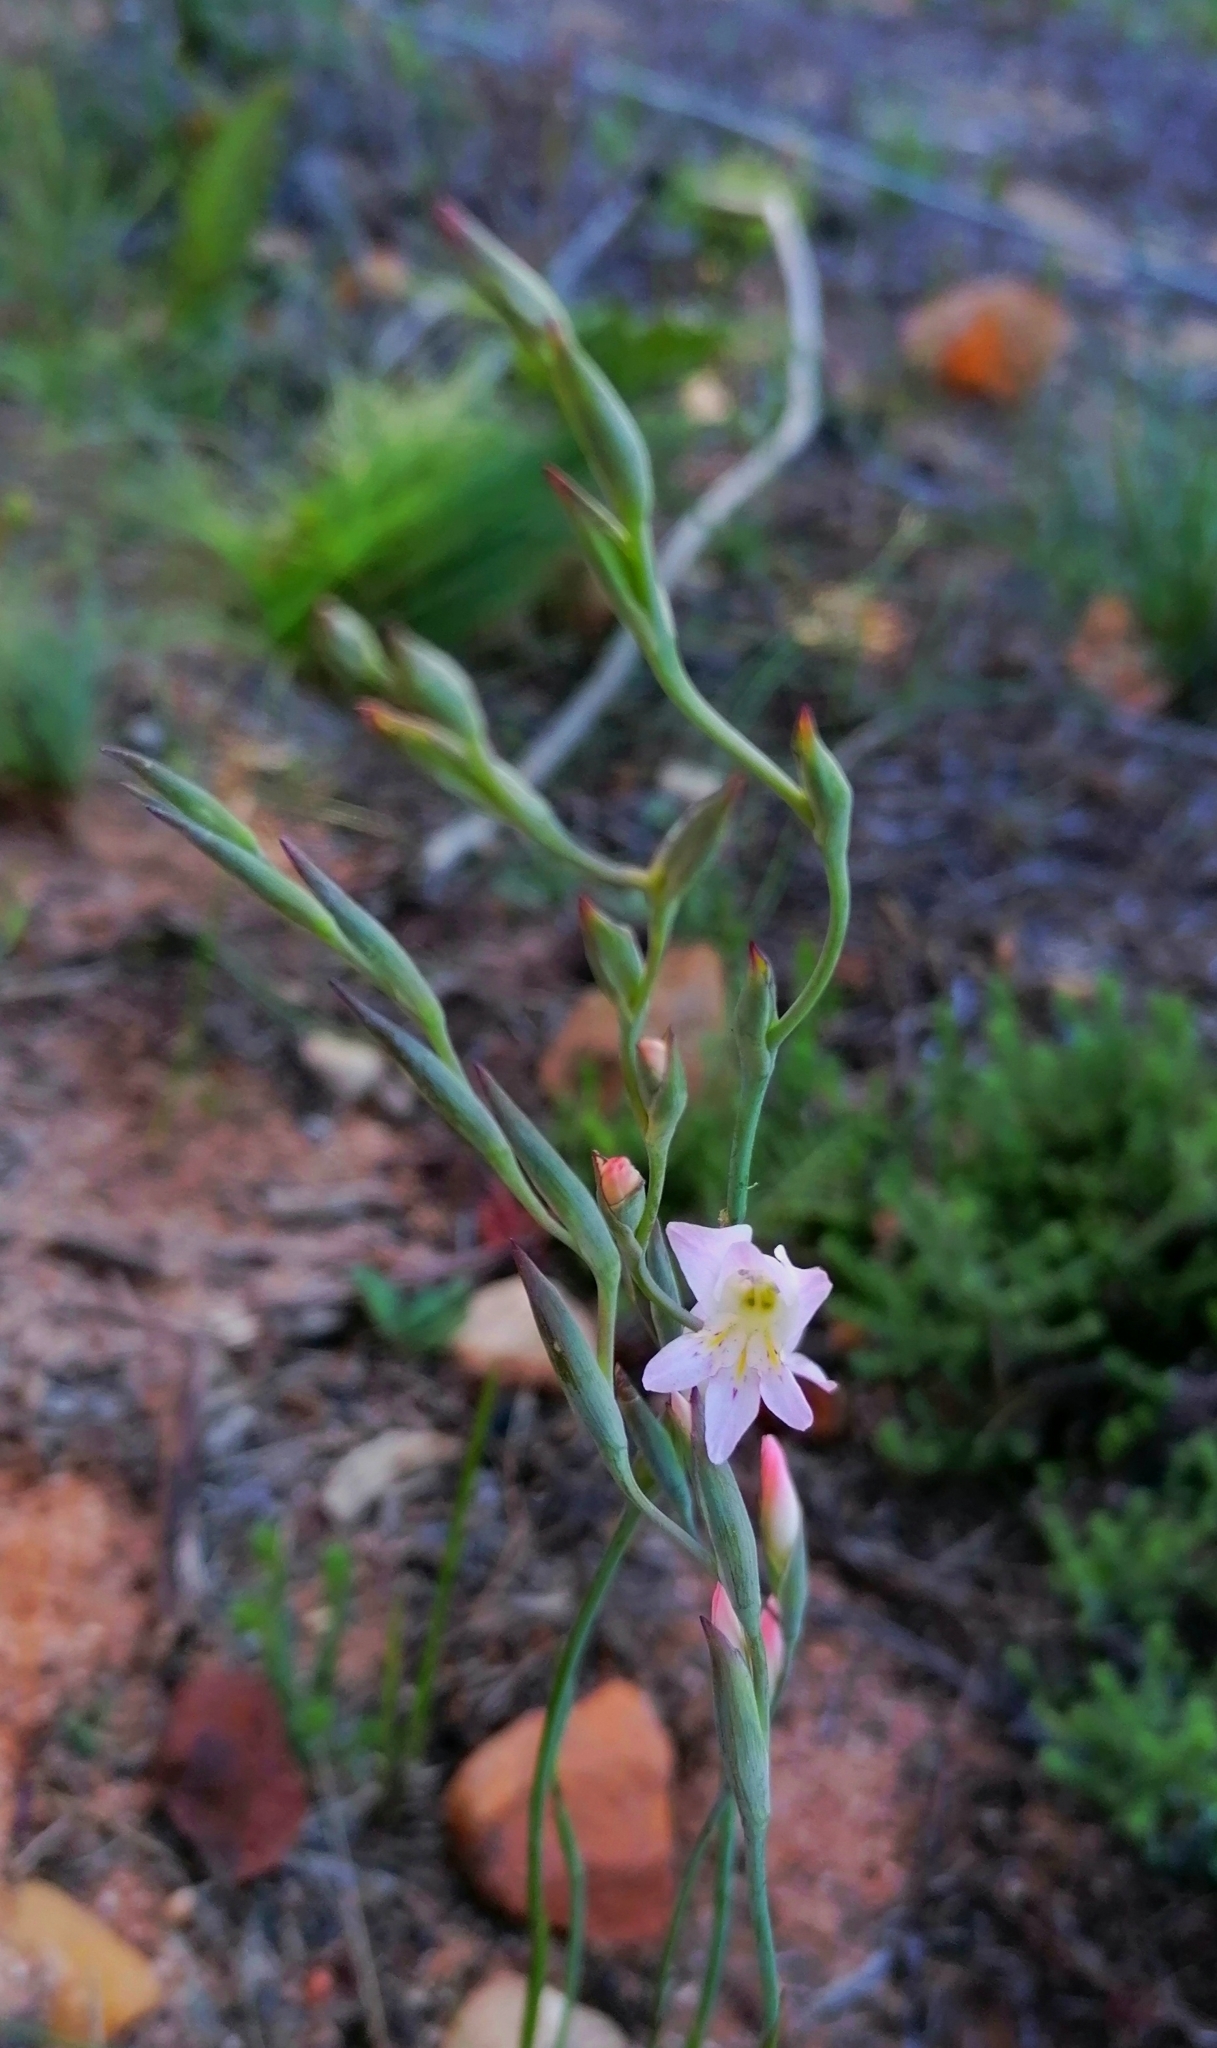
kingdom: Plantae
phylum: Tracheophyta
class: Liliopsida
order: Asparagales
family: Iridaceae
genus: Gladiolus
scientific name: Gladiolus brevifolius
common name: March pypie
